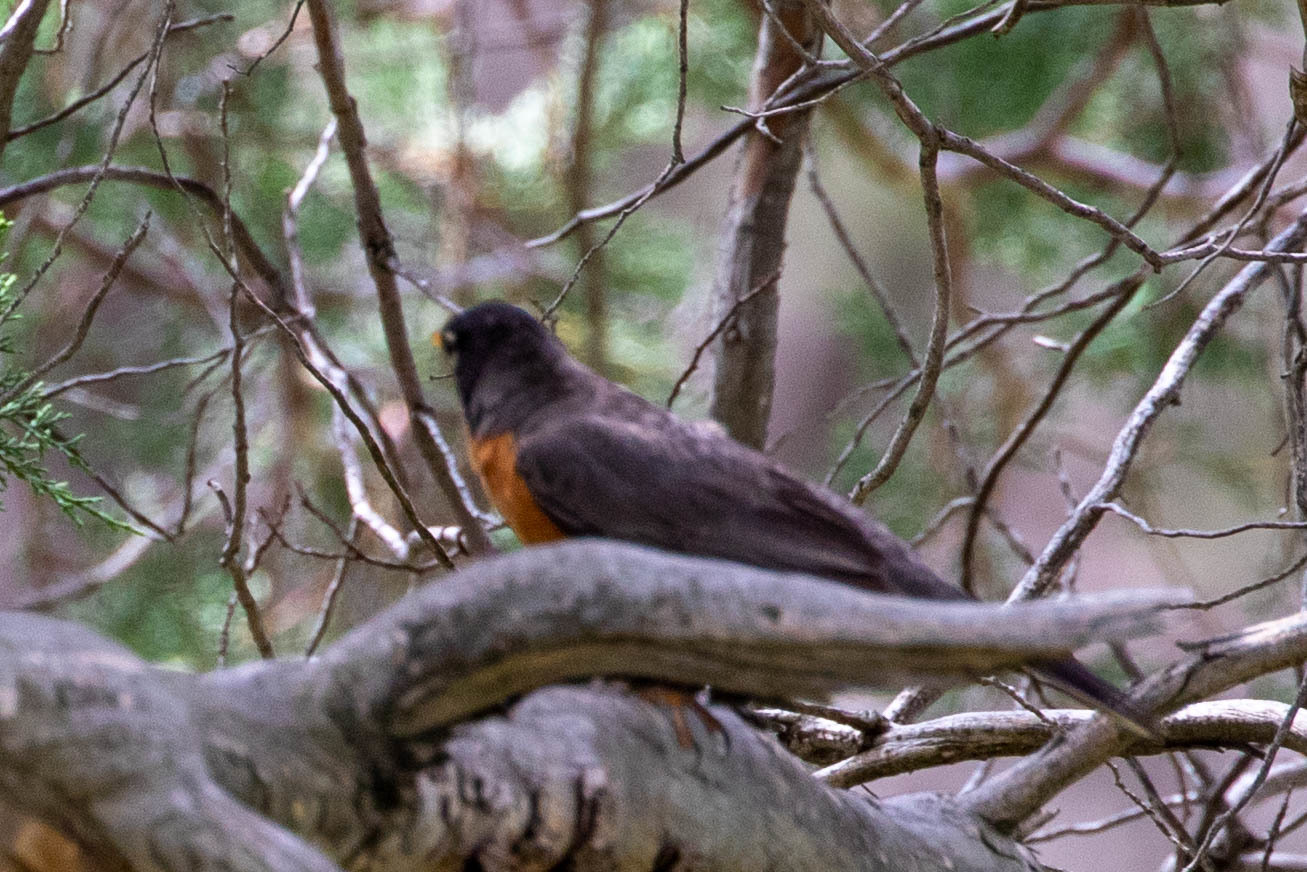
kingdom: Animalia
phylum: Chordata
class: Aves
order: Passeriformes
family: Turdidae
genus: Turdus
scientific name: Turdus migratorius
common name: American robin
